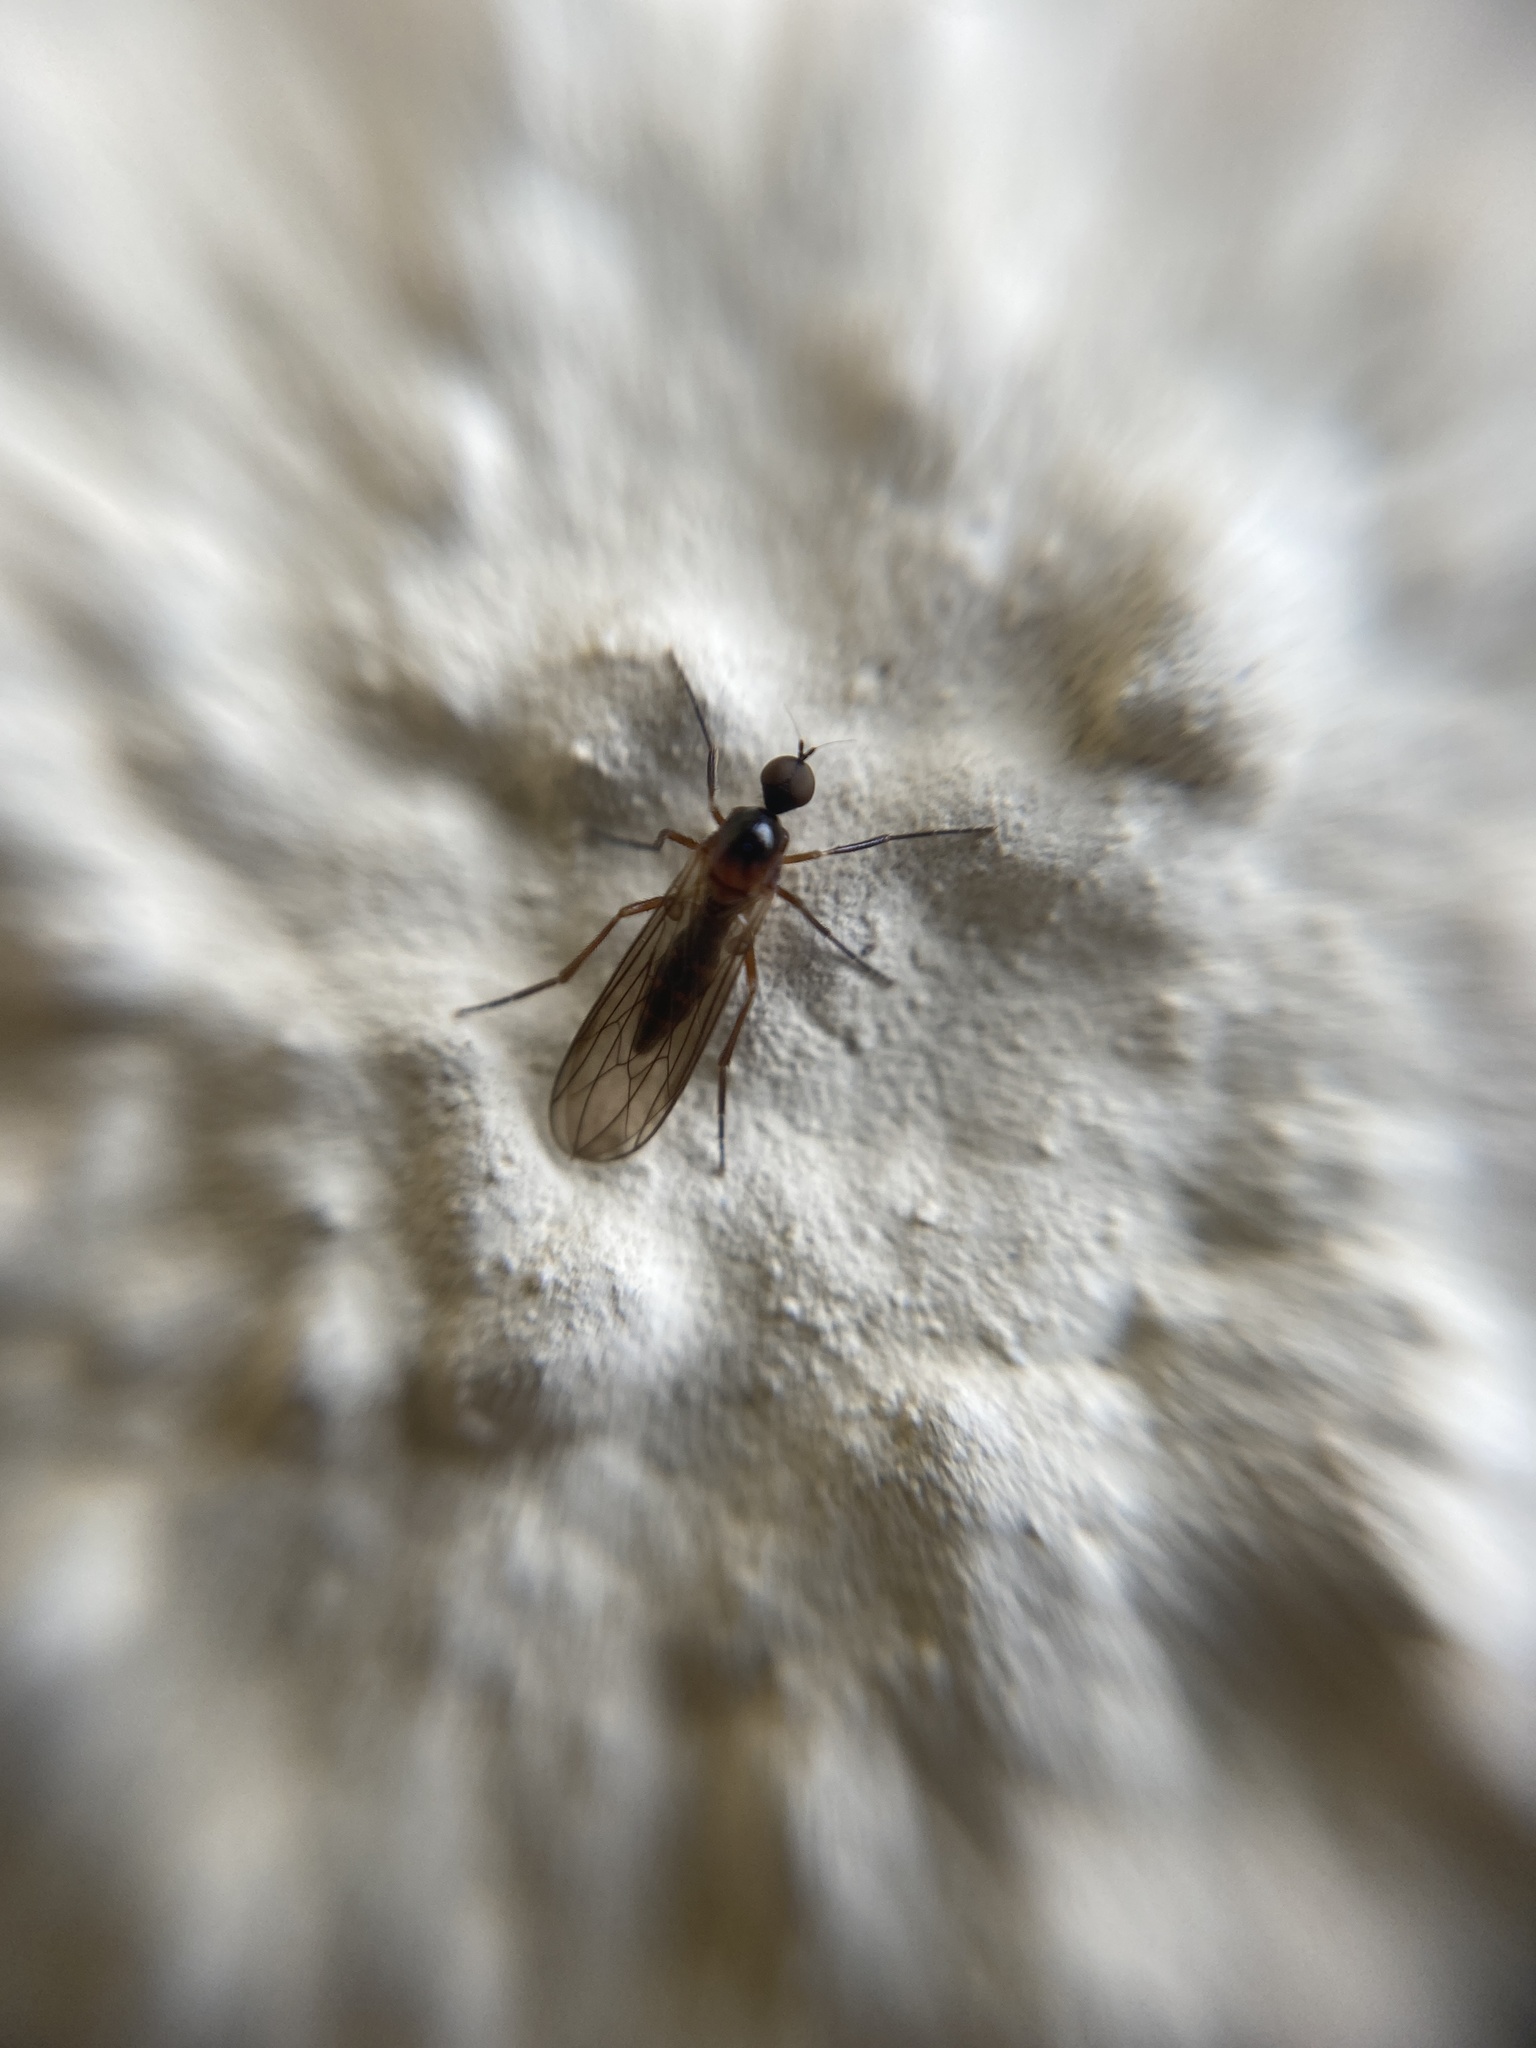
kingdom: Animalia
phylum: Arthropoda
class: Insecta
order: Diptera
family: Hybotidae
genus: Ocydromia
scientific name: Ocydromia glabricula
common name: Dance fly
